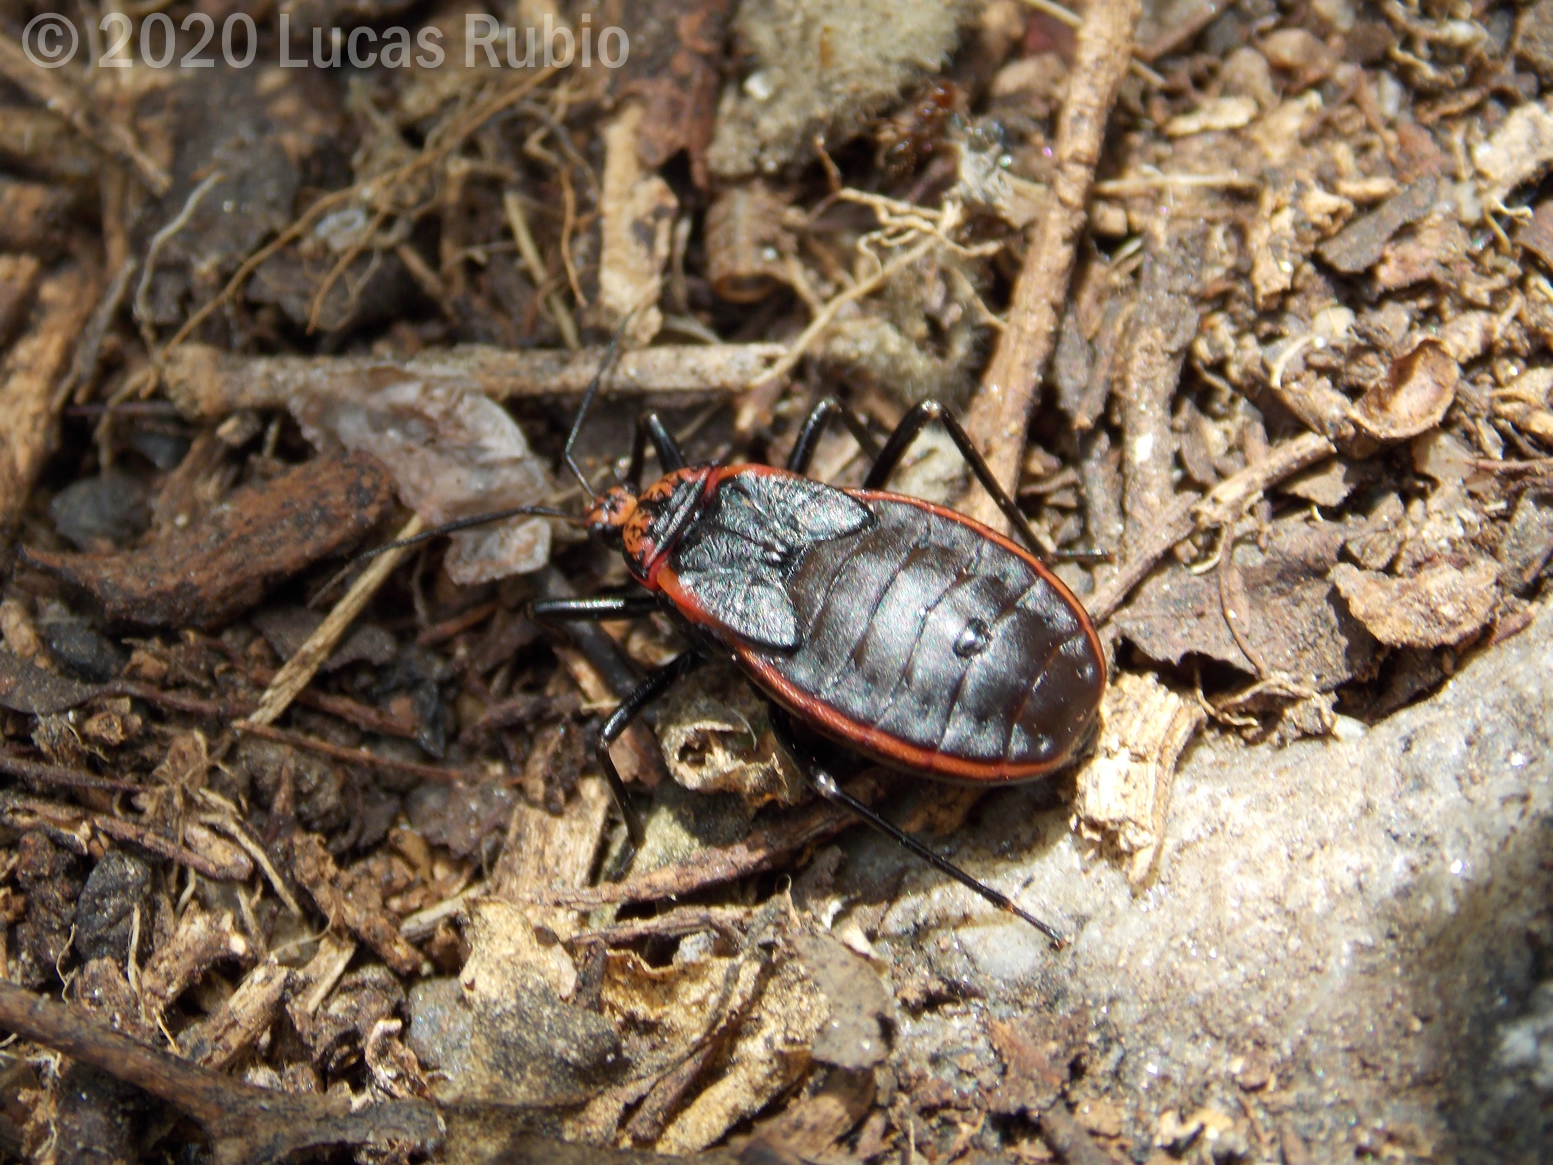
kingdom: Animalia
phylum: Arthropoda
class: Insecta
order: Hemiptera
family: Reduviidae
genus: Rhiginia
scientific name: Rhiginia ruficoria
